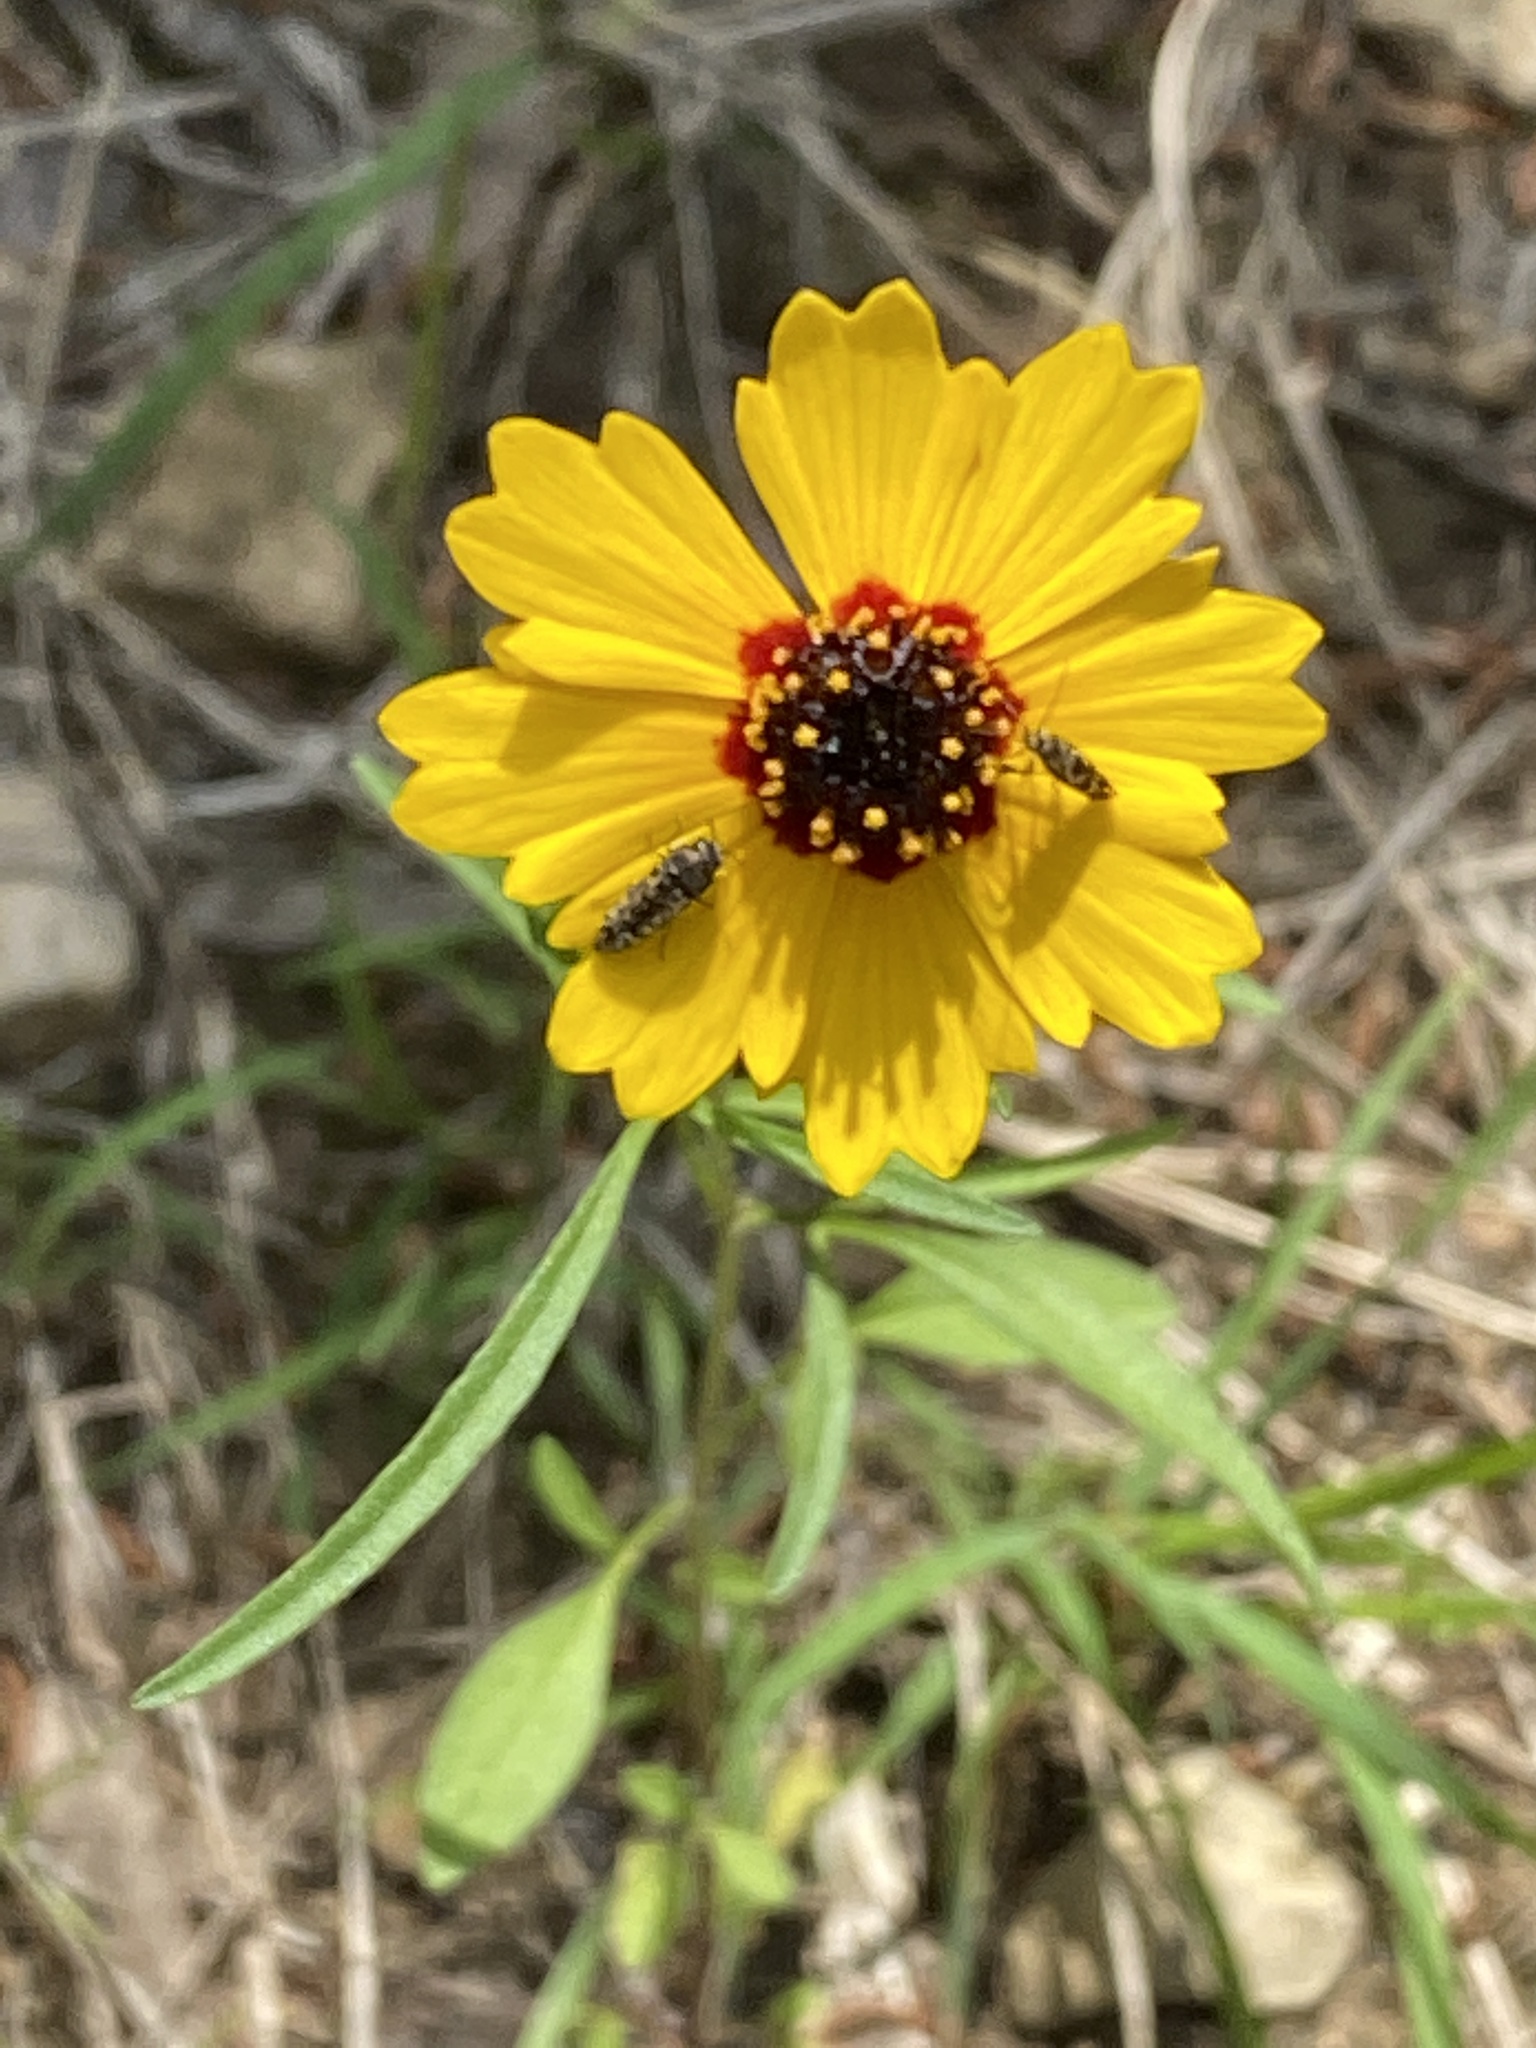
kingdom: Plantae
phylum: Tracheophyta
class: Magnoliopsida
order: Asterales
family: Asteraceae
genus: Thelesperma
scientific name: Thelesperma filifolium
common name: Stiff greenthread
